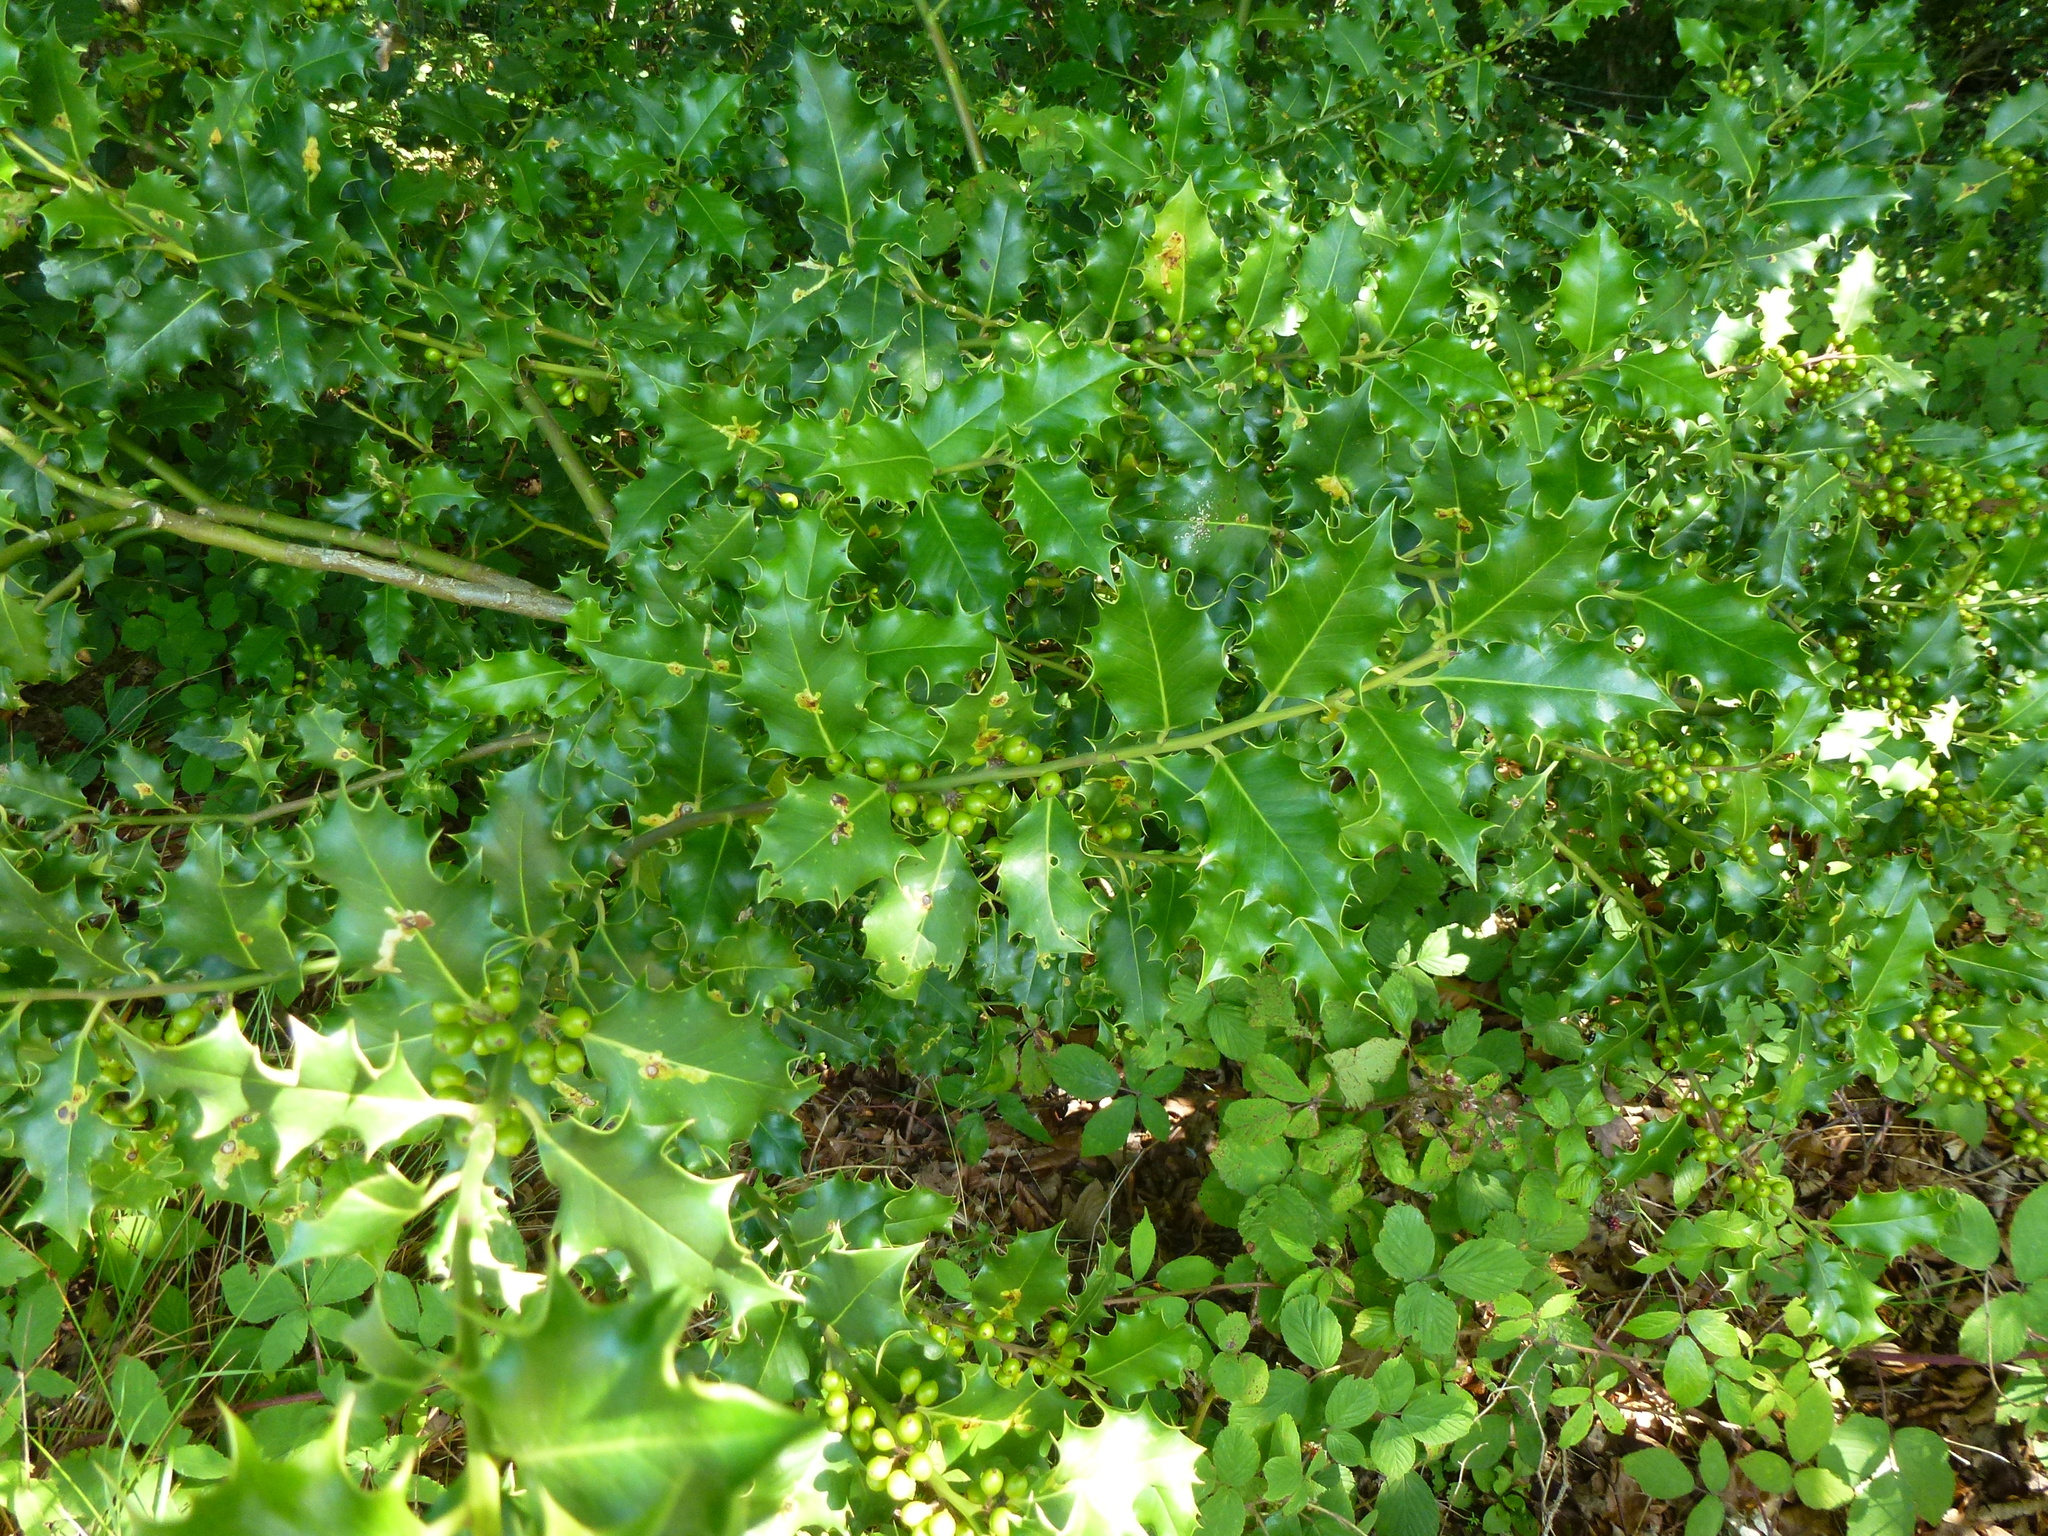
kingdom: Plantae
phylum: Tracheophyta
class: Magnoliopsida
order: Aquifoliales
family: Aquifoliaceae
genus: Ilex
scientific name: Ilex aquifolium
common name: English holly
